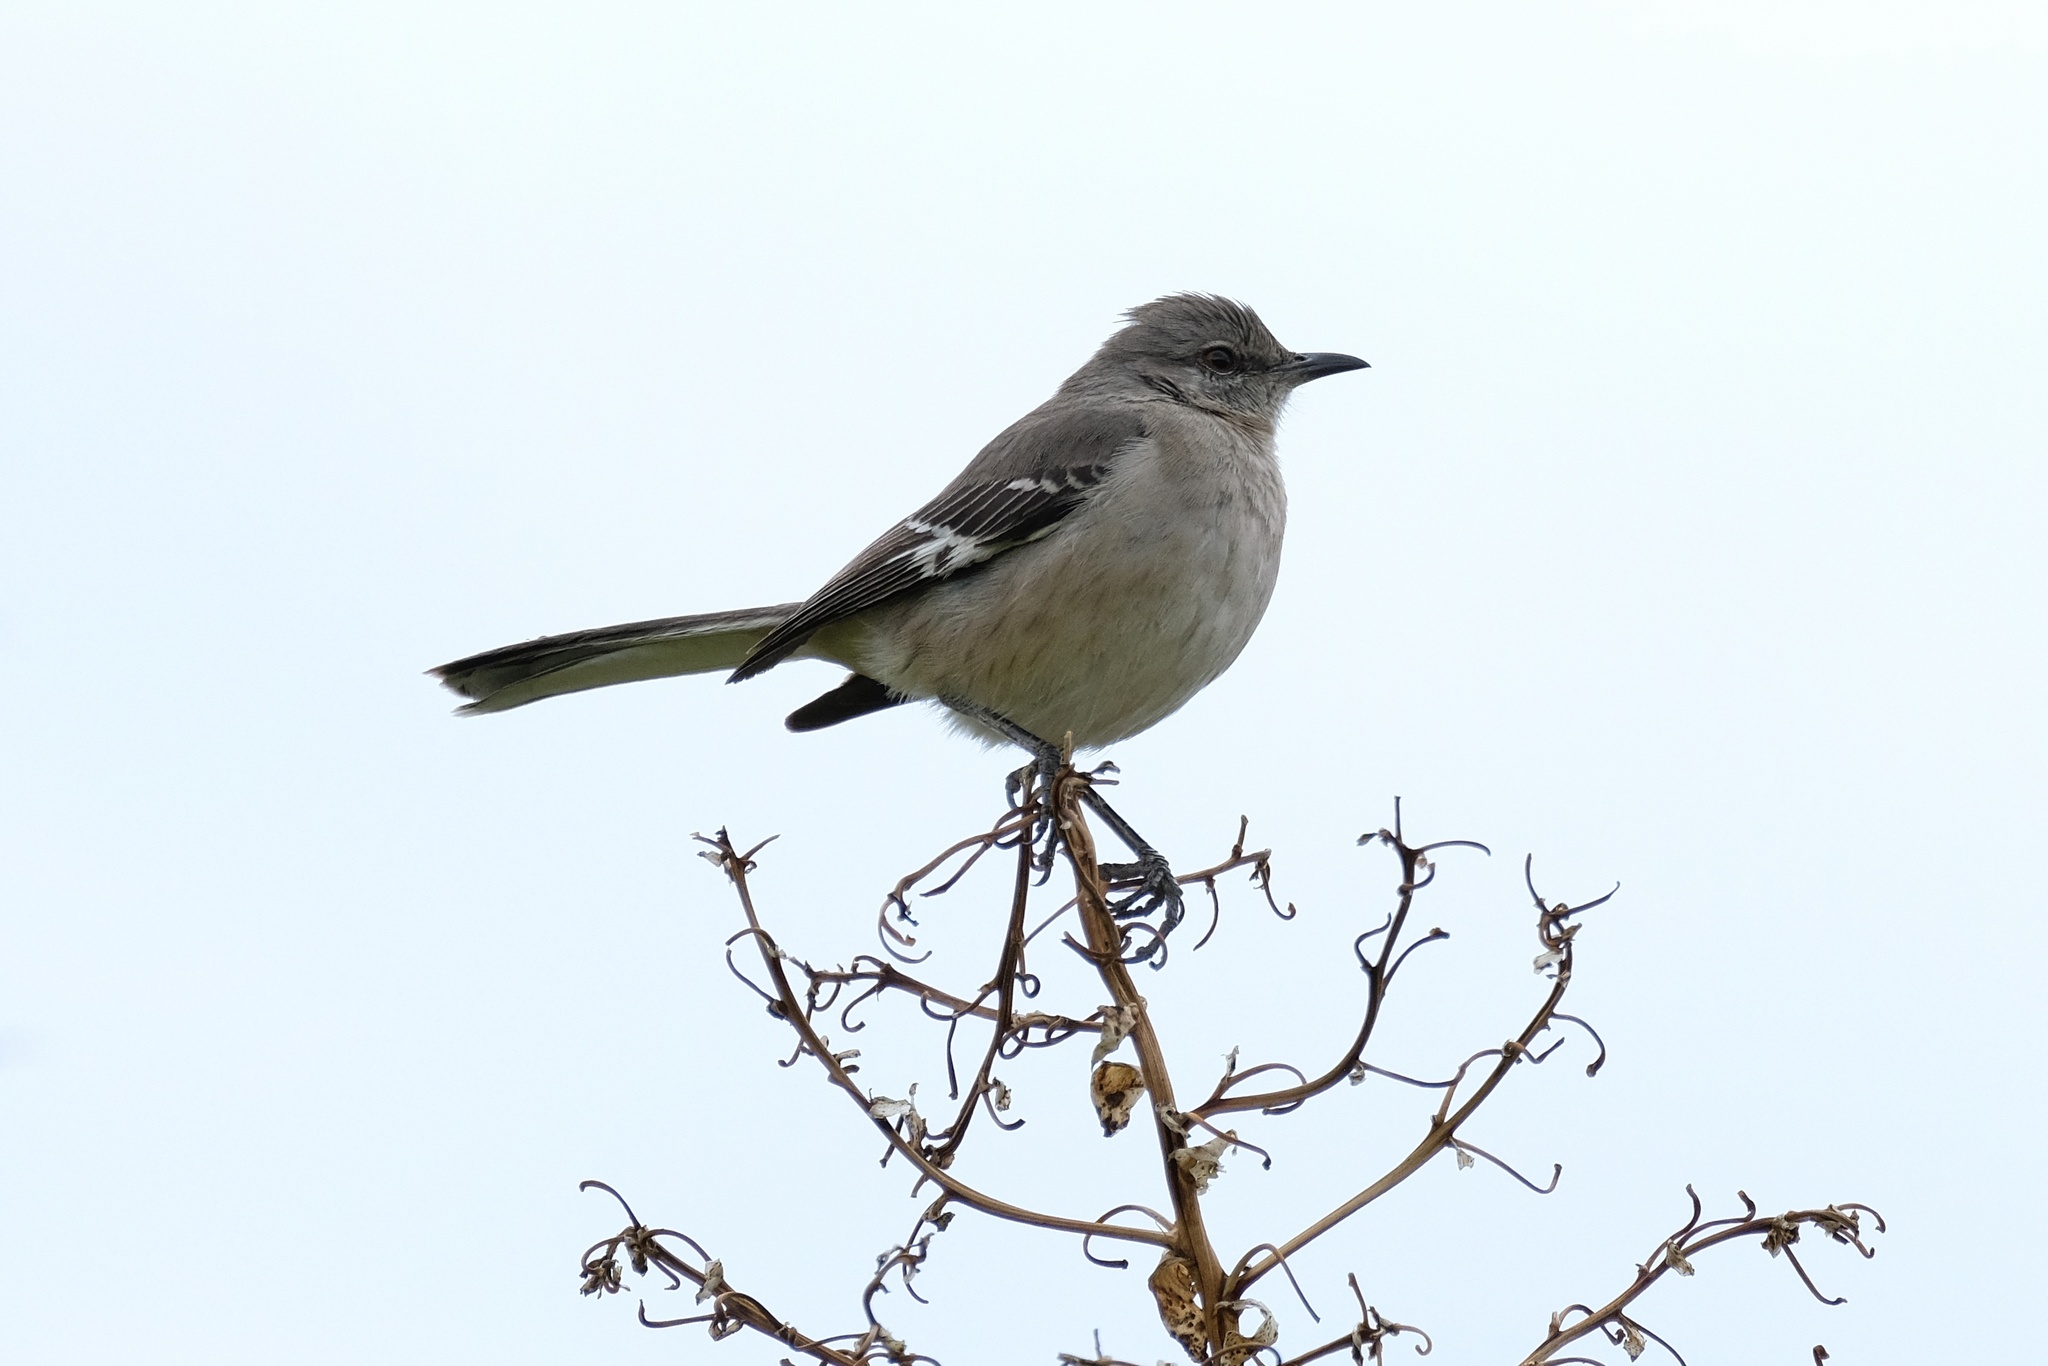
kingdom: Animalia
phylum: Chordata
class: Aves
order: Passeriformes
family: Mimidae
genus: Mimus
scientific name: Mimus polyglottos
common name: Northern mockingbird
